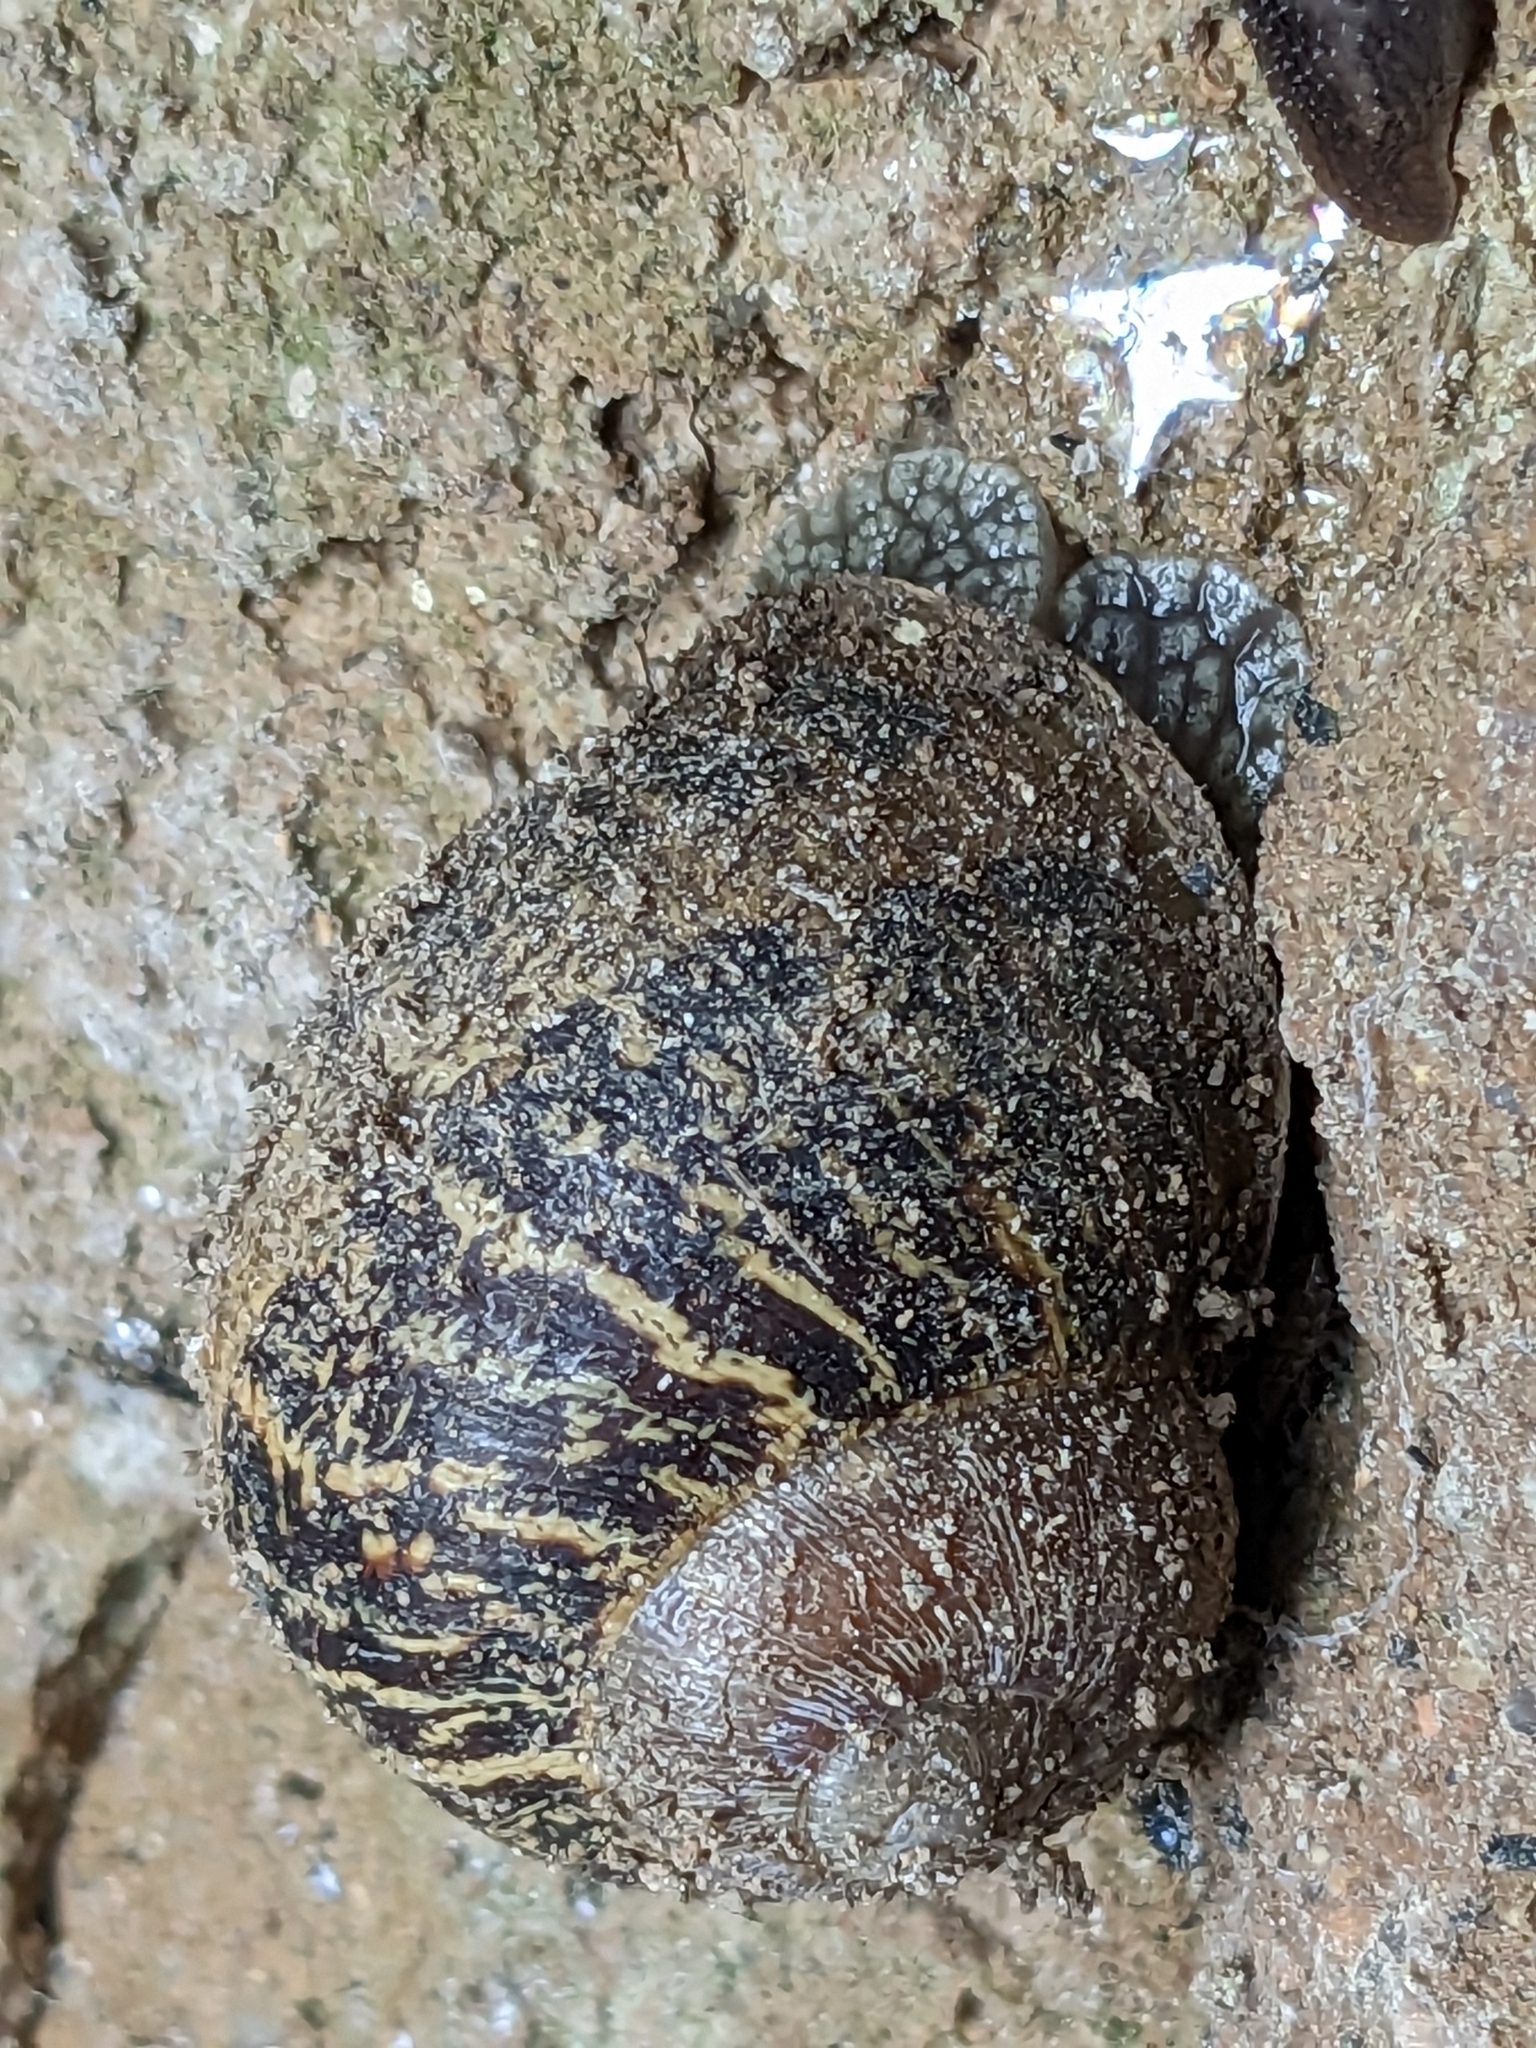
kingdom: Animalia
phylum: Mollusca
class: Gastropoda
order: Stylommatophora
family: Helicidae
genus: Cornu
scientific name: Cornu aspersum
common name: Brown garden snail
